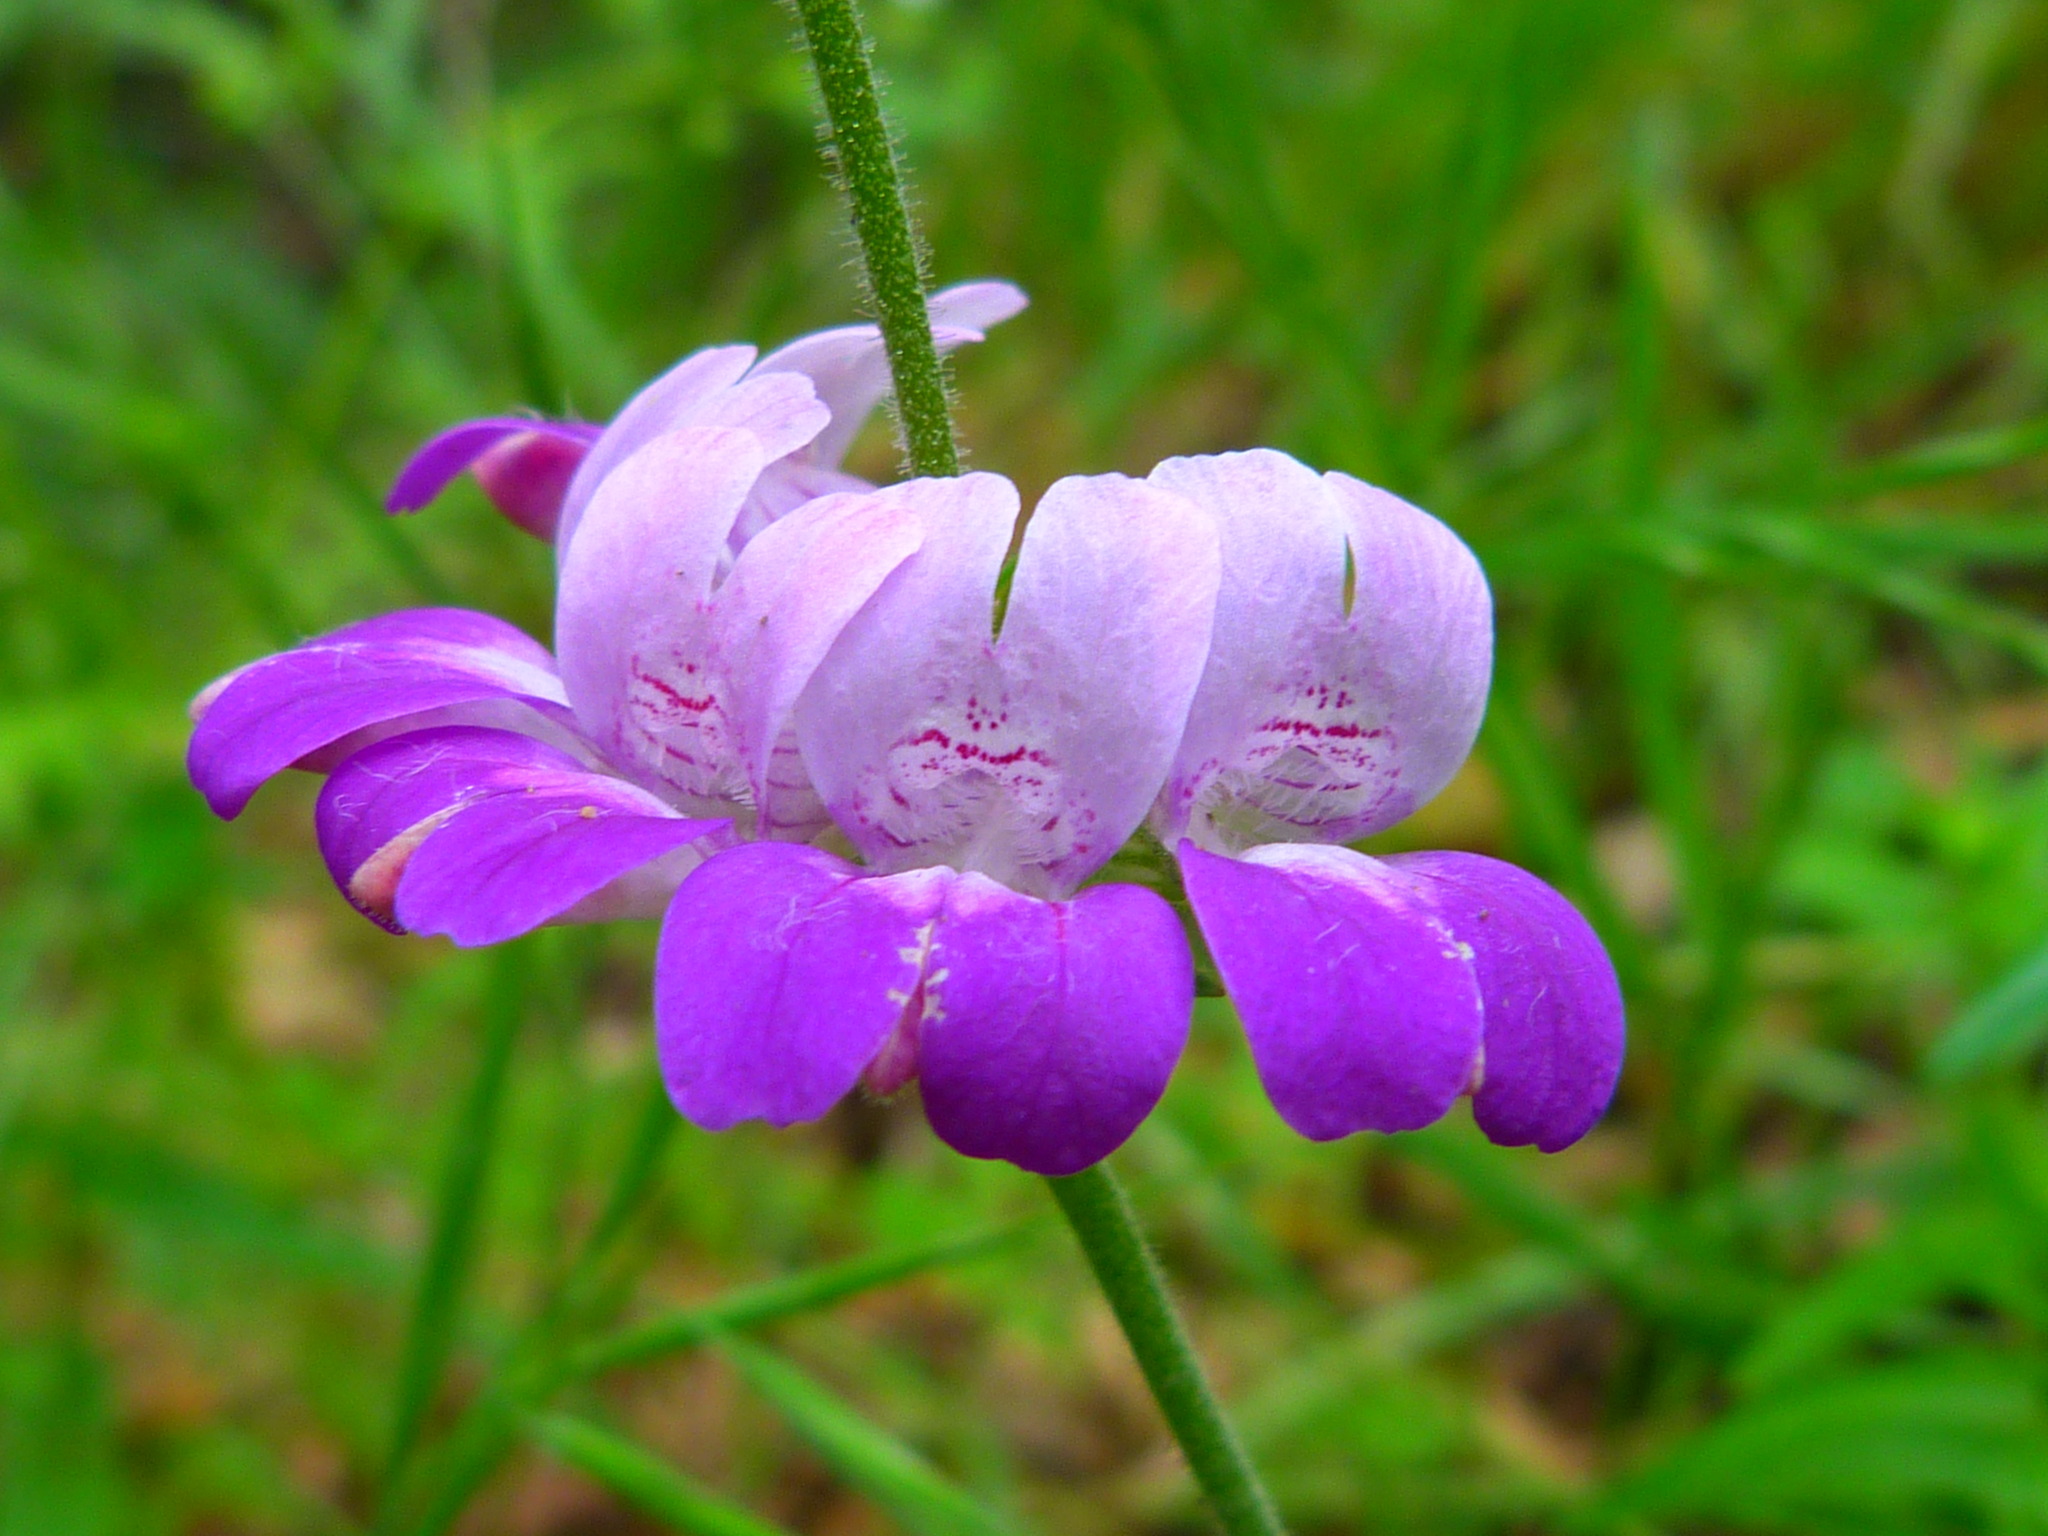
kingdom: Plantae
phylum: Tracheophyta
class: Magnoliopsida
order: Lamiales
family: Plantaginaceae
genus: Collinsia
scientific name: Collinsia heterophylla
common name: Chinese-houses
